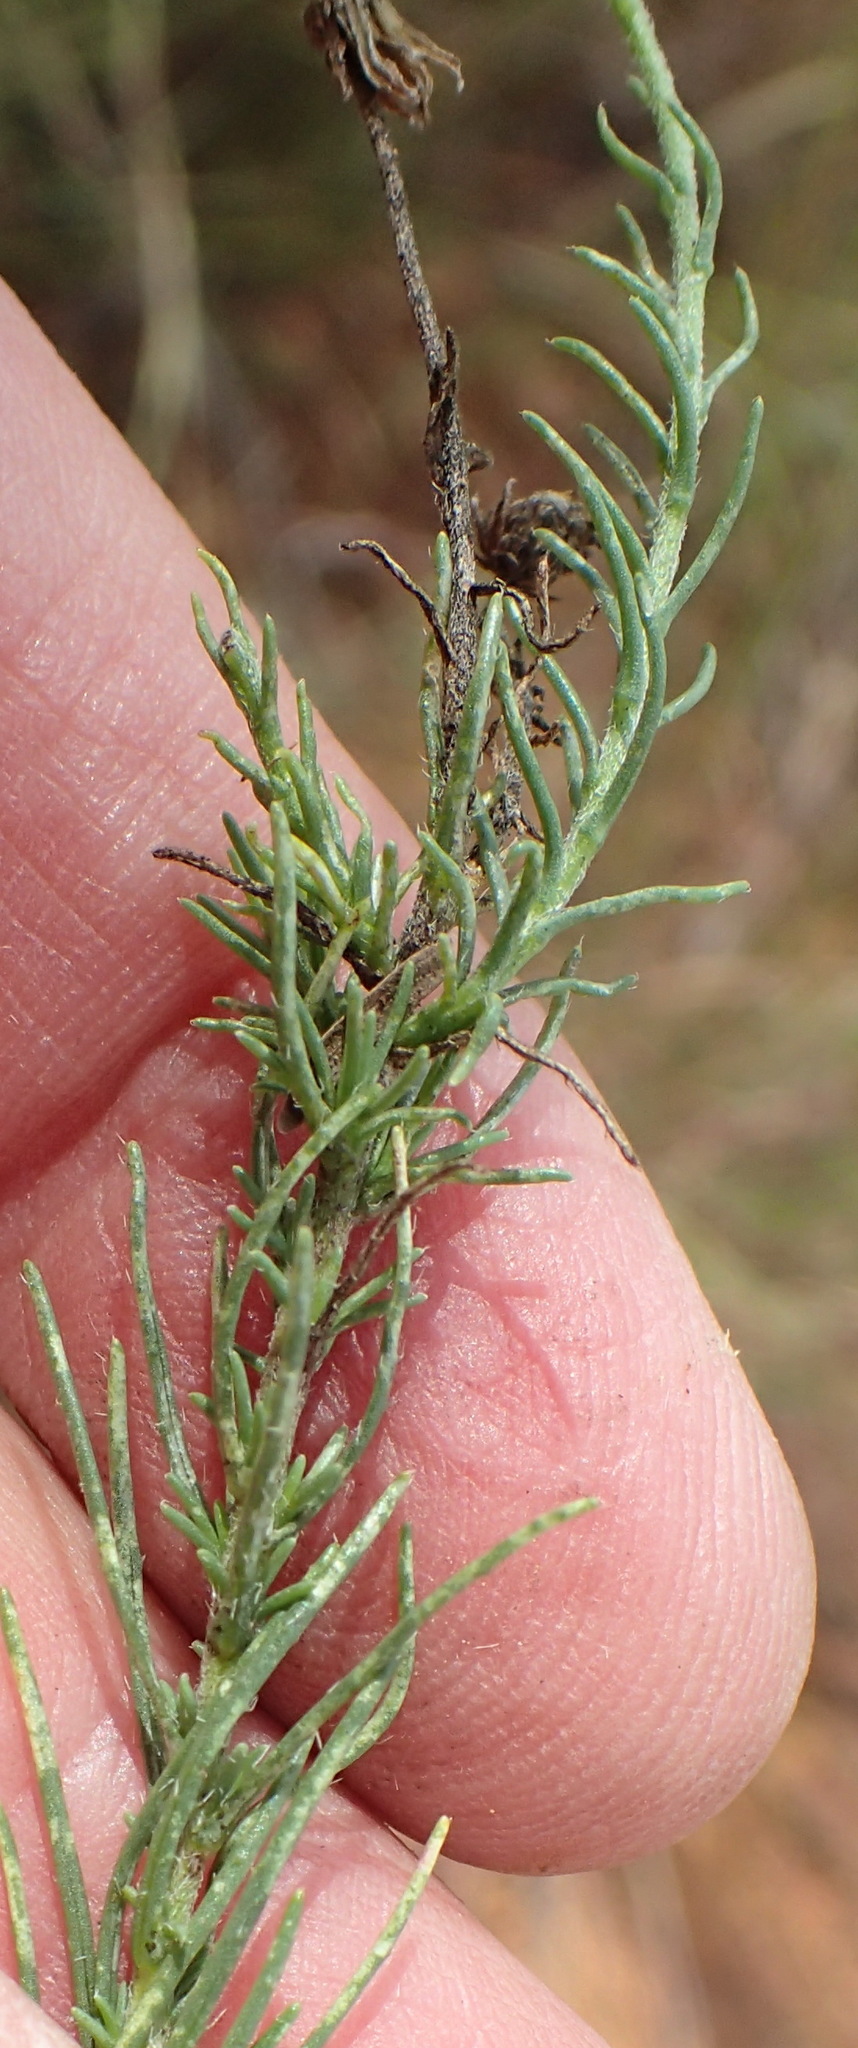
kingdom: Plantae
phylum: Tracheophyta
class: Magnoliopsida
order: Asterales
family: Asteraceae
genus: Felicia
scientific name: Felicia muricata
